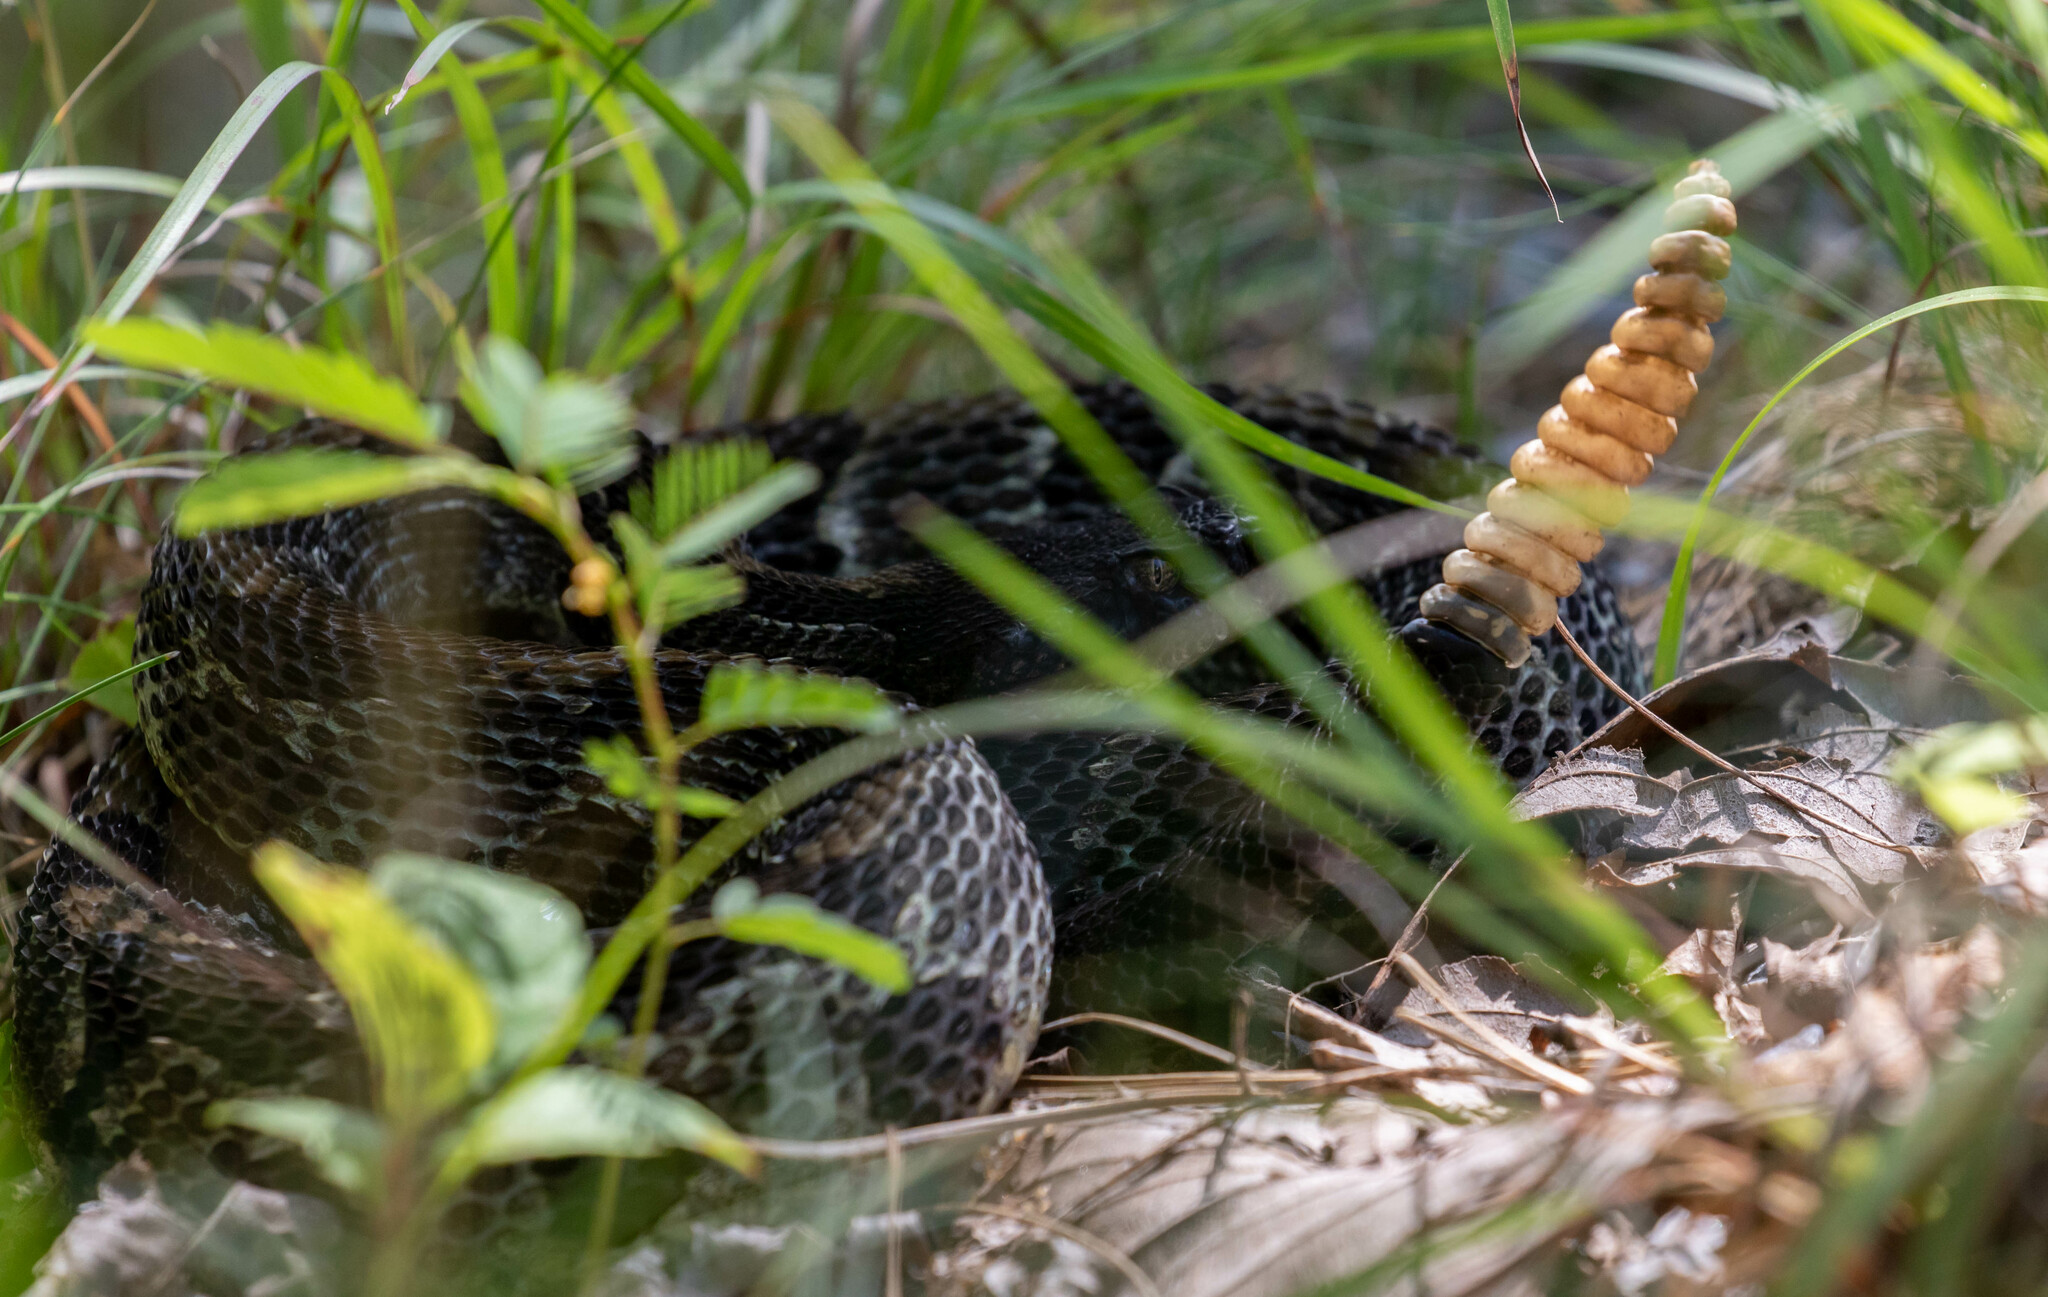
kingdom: Animalia
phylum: Chordata
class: Squamata
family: Viperidae
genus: Crotalus
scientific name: Crotalus horridus
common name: Timber rattlesnake
